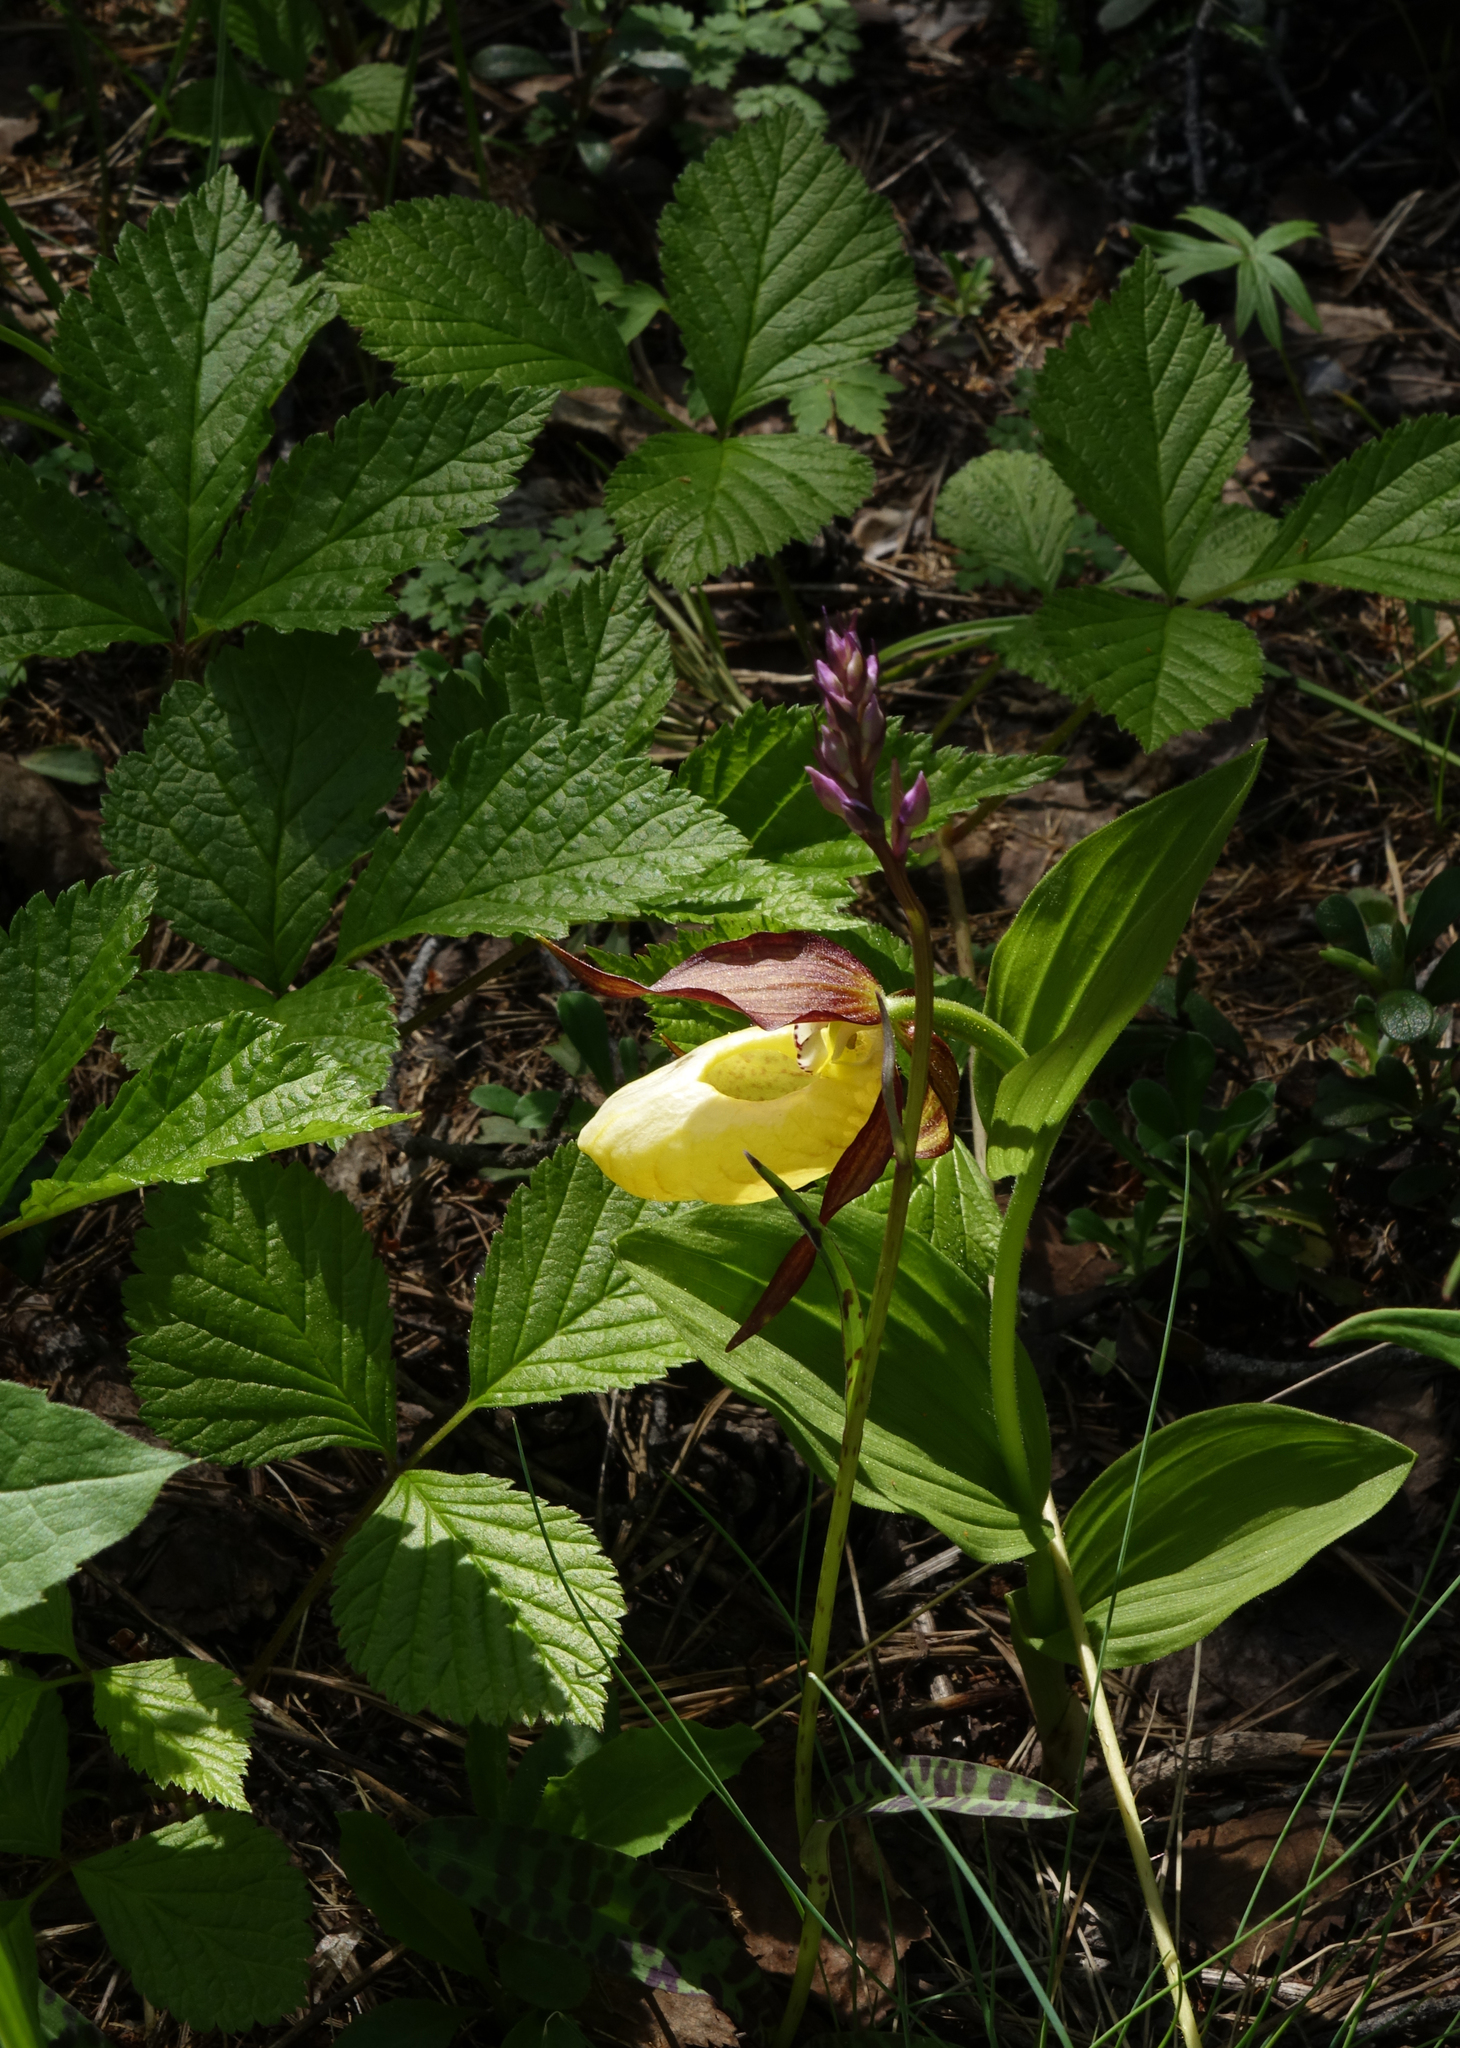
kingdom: Plantae
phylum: Tracheophyta
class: Liliopsida
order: Asparagales
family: Orchidaceae
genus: Cypripedium
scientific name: Cypripedium calceolus
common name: Lady's-slipper
